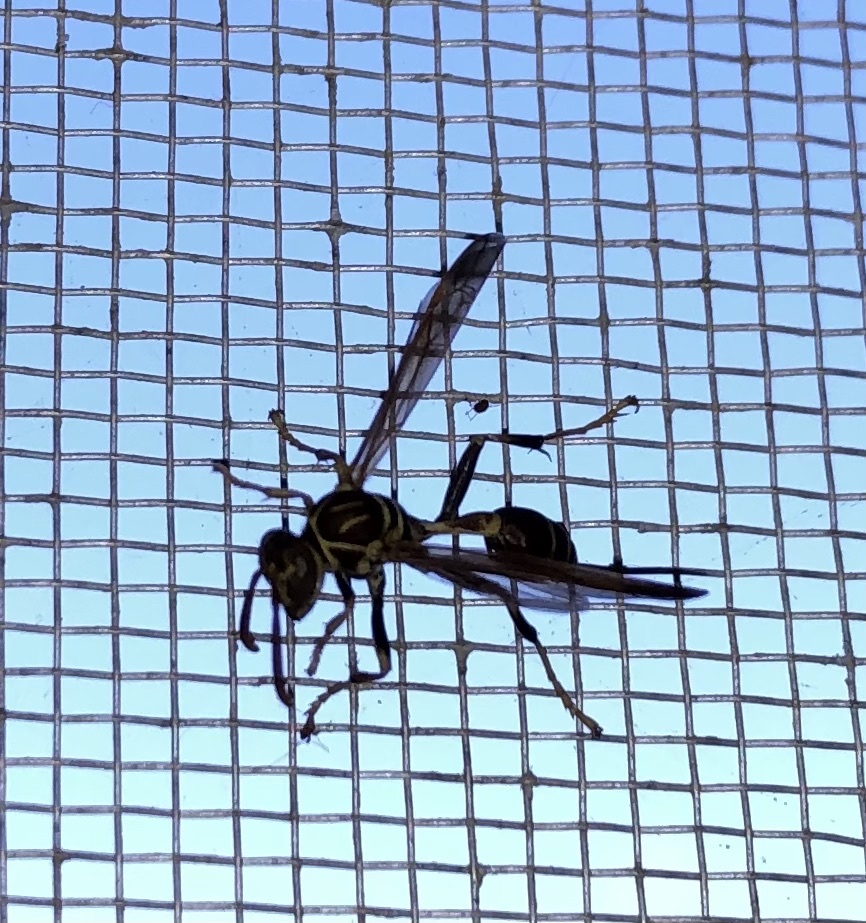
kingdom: Animalia
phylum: Arthropoda
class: Insecta
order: Hymenoptera
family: Vespidae
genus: Mischocyttarus
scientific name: Mischocyttarus mexicanus
